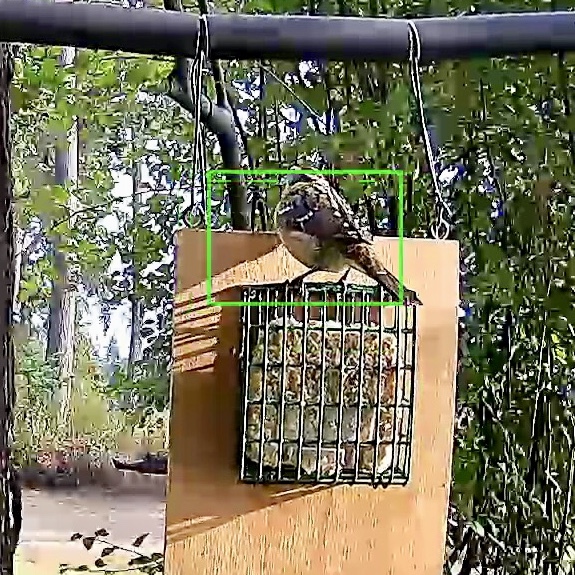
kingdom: Animalia
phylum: Chordata
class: Aves
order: Passeriformes
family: Cardinalidae
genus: Pheucticus
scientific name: Pheucticus melanocephalus
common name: Black-headed grosbeak
